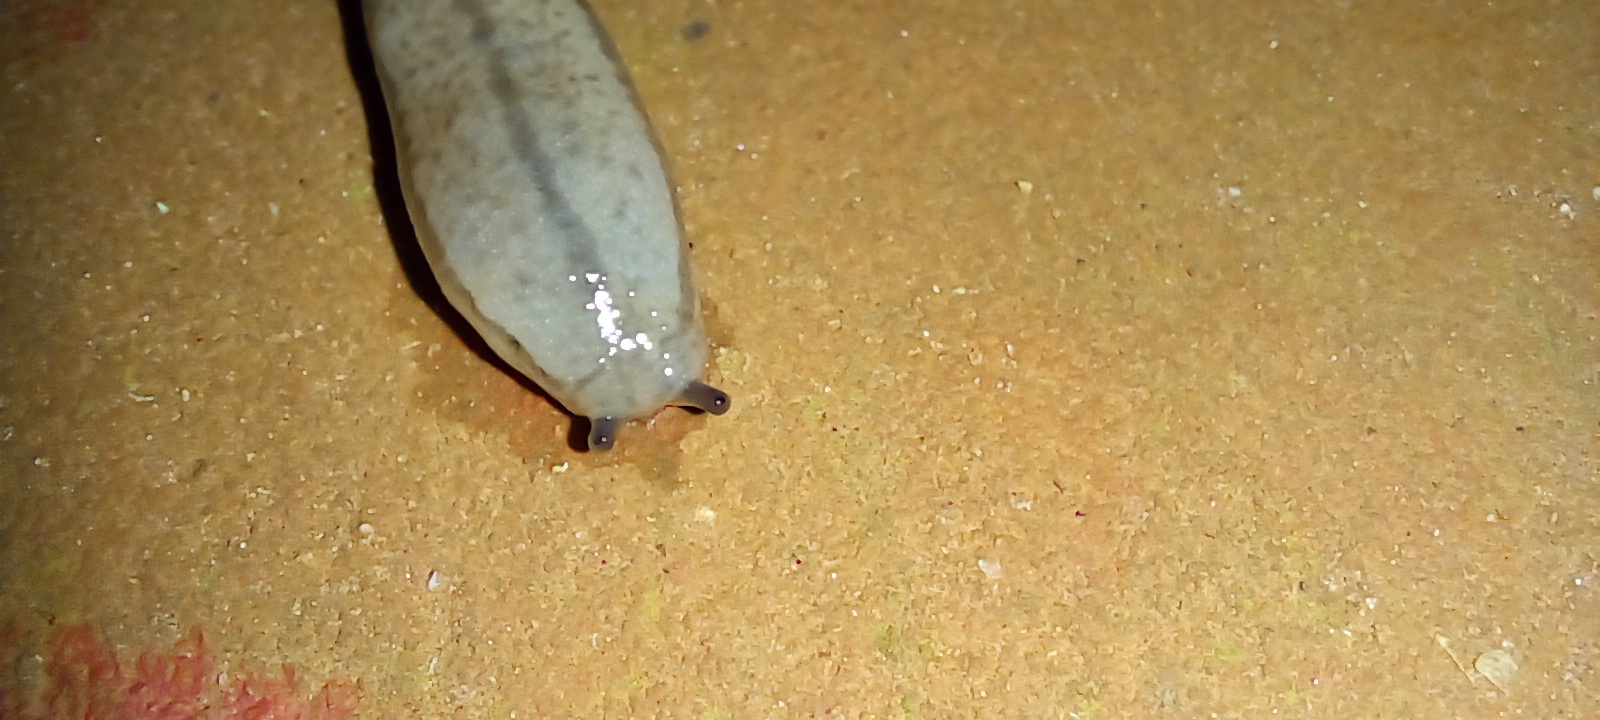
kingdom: Animalia
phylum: Mollusca
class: Gastropoda
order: Stylommatophora
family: Philomycidae
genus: Meghimatium
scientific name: Meghimatium pictum
